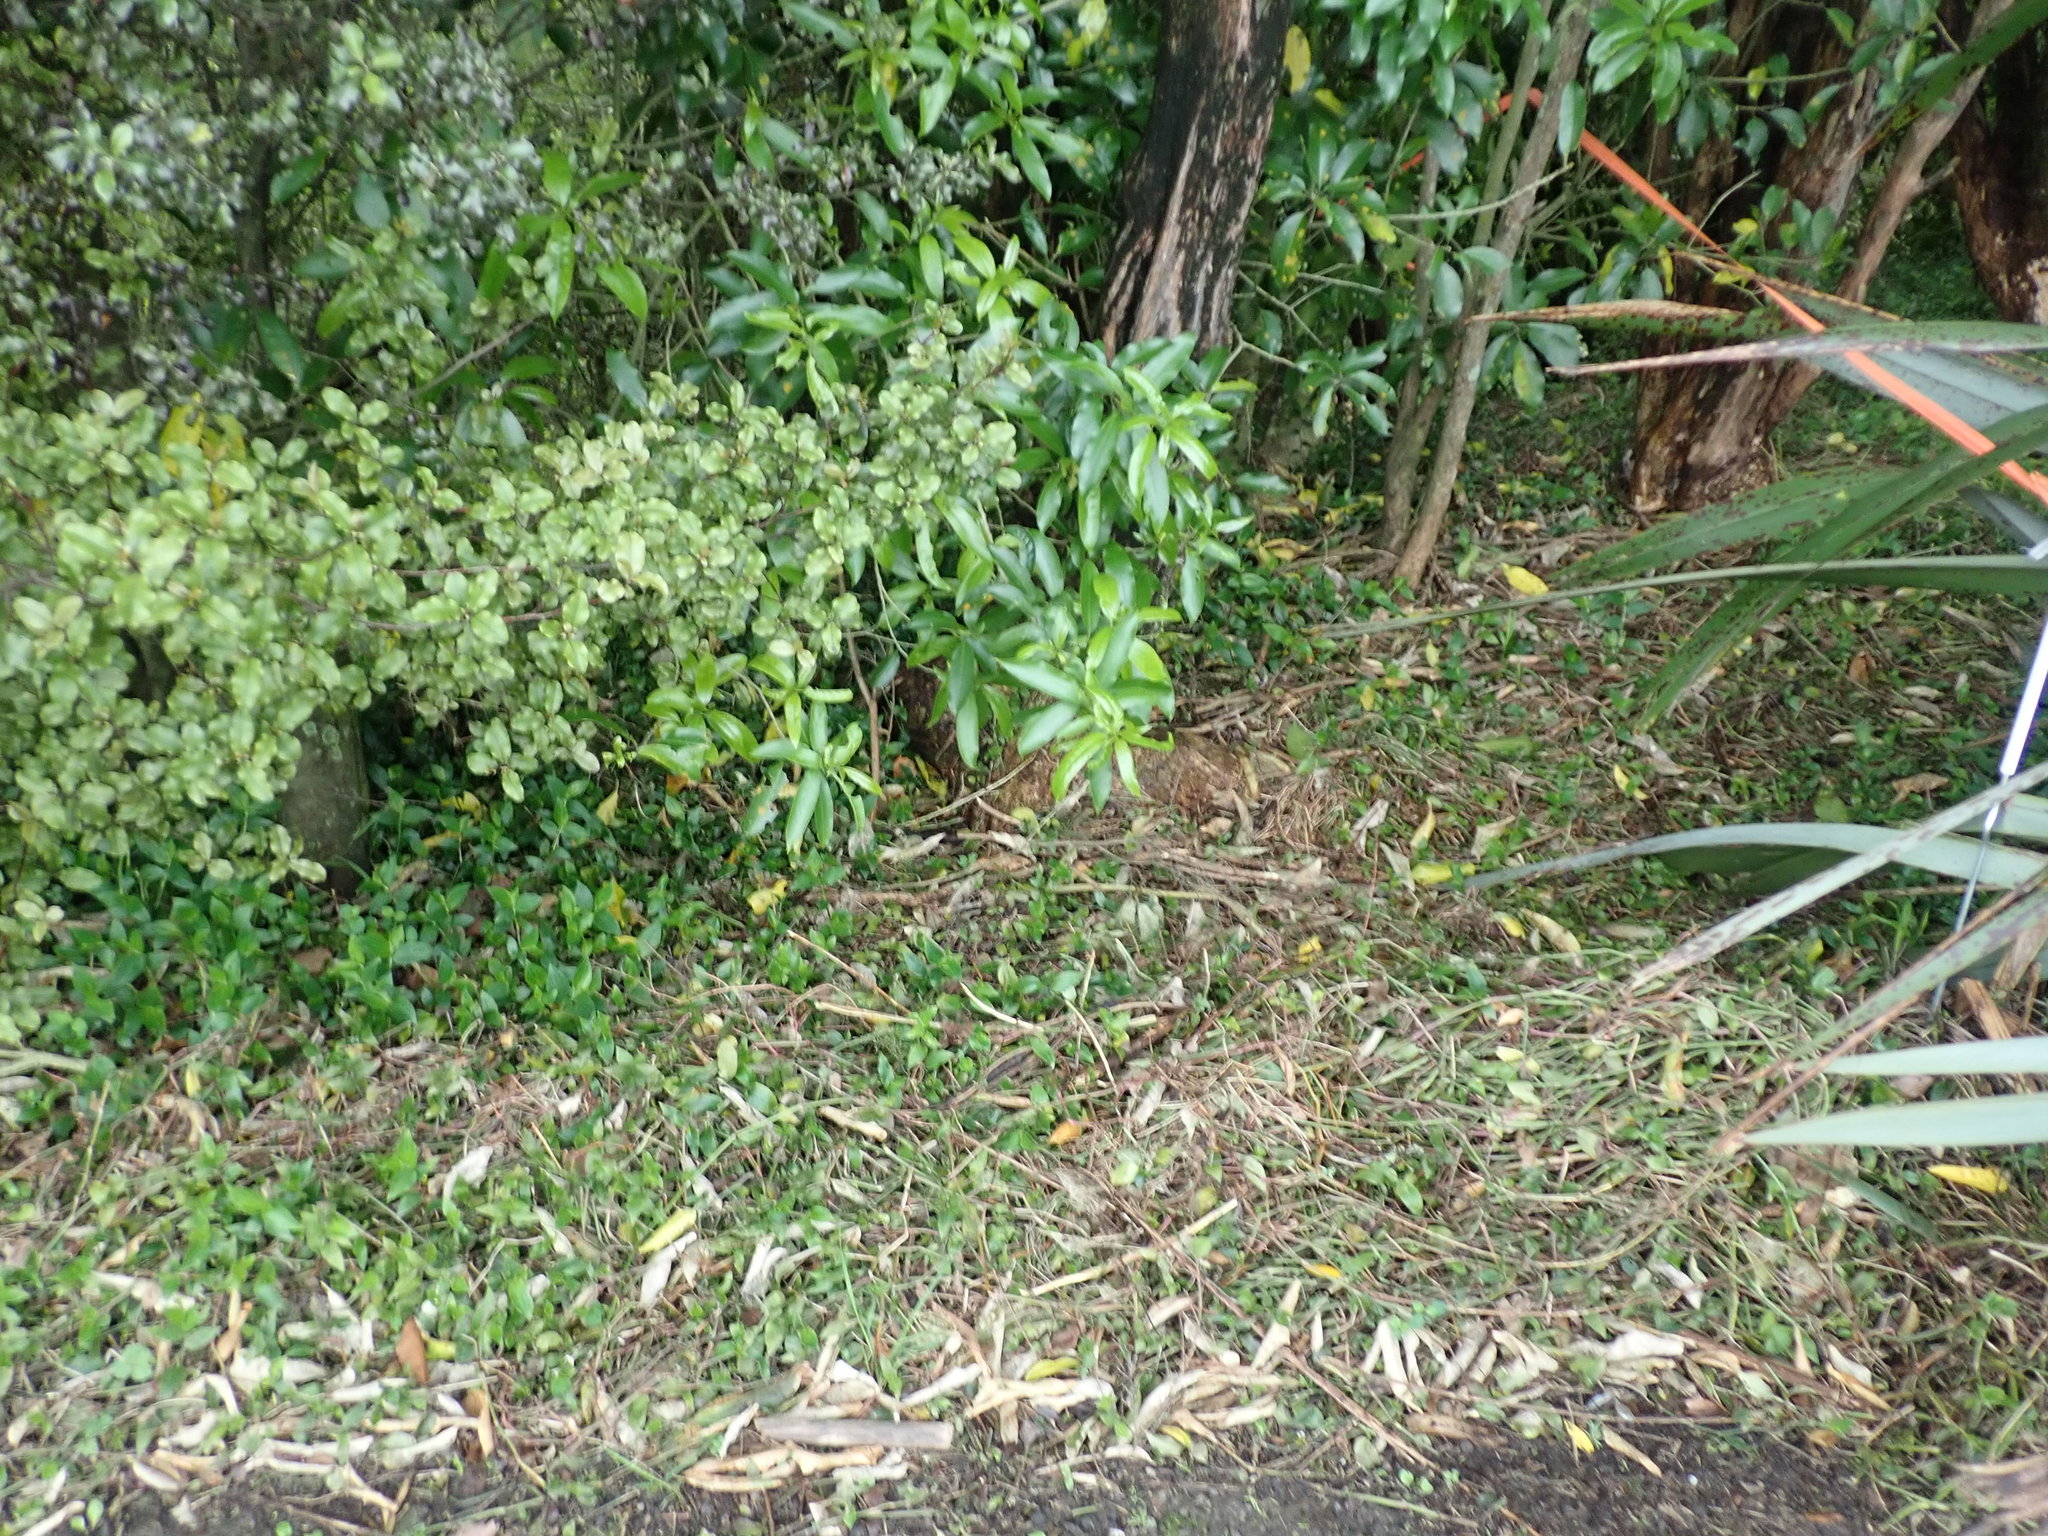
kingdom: Plantae
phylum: Tracheophyta
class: Liliopsida
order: Commelinales
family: Commelinaceae
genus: Tradescantia
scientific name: Tradescantia fluminensis
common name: Wandering-jew
